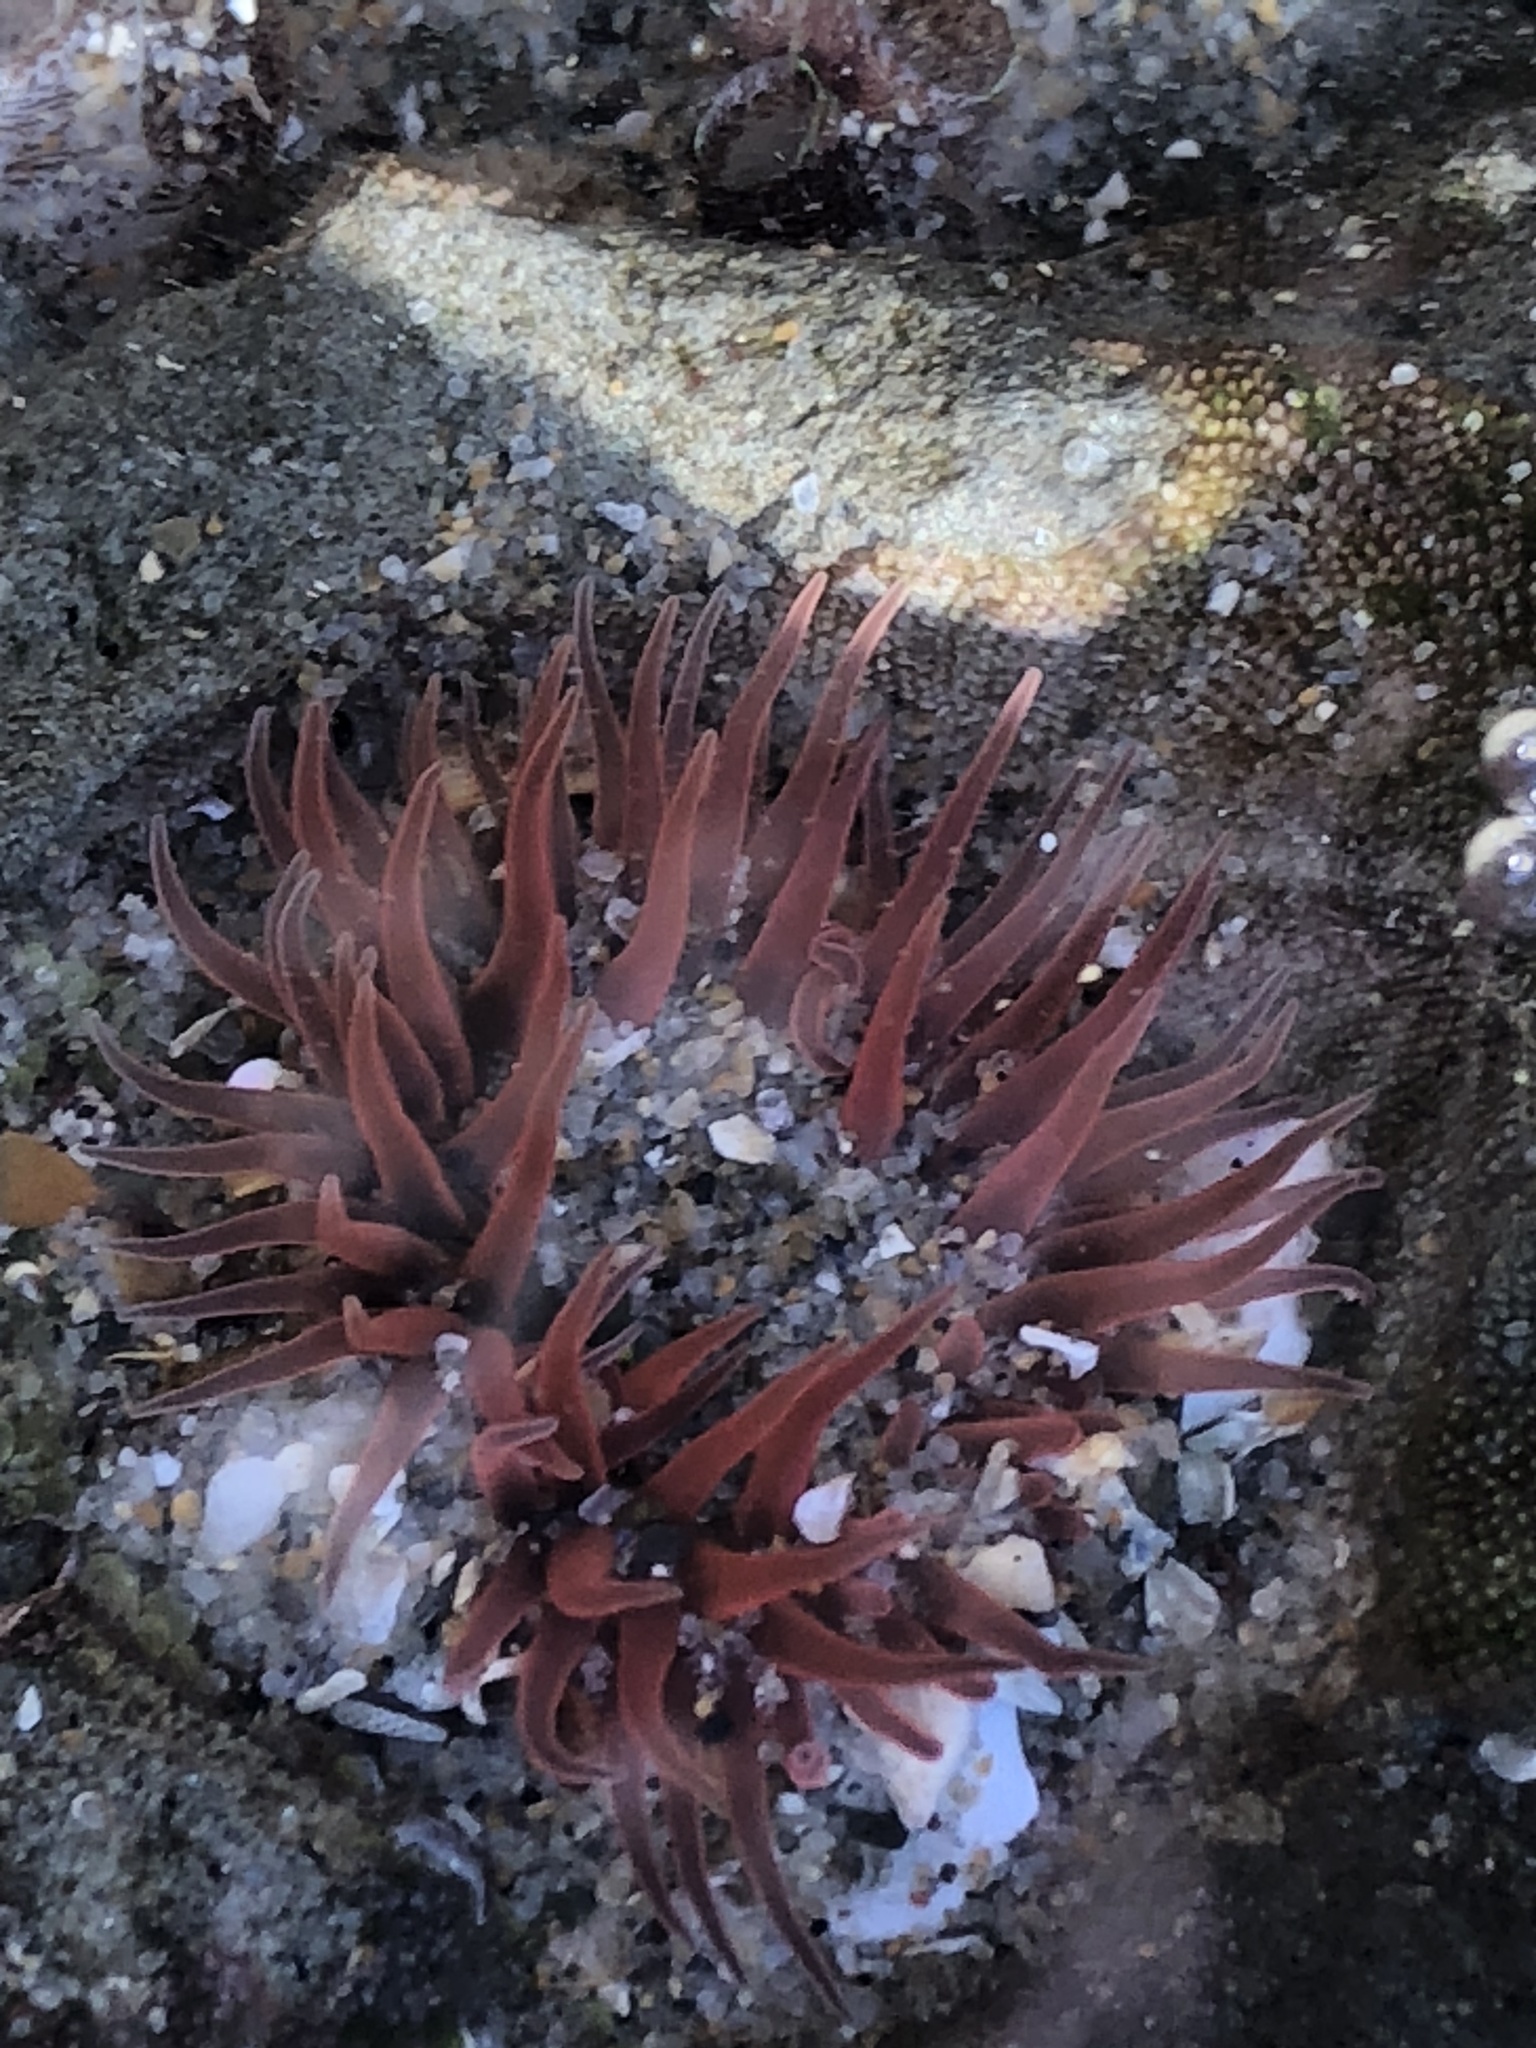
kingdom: Animalia
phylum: Cnidaria
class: Anthozoa
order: Actiniaria
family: Actiniidae
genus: Anthopleura
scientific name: Anthopleura artemisia
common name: Buried sea anemone
